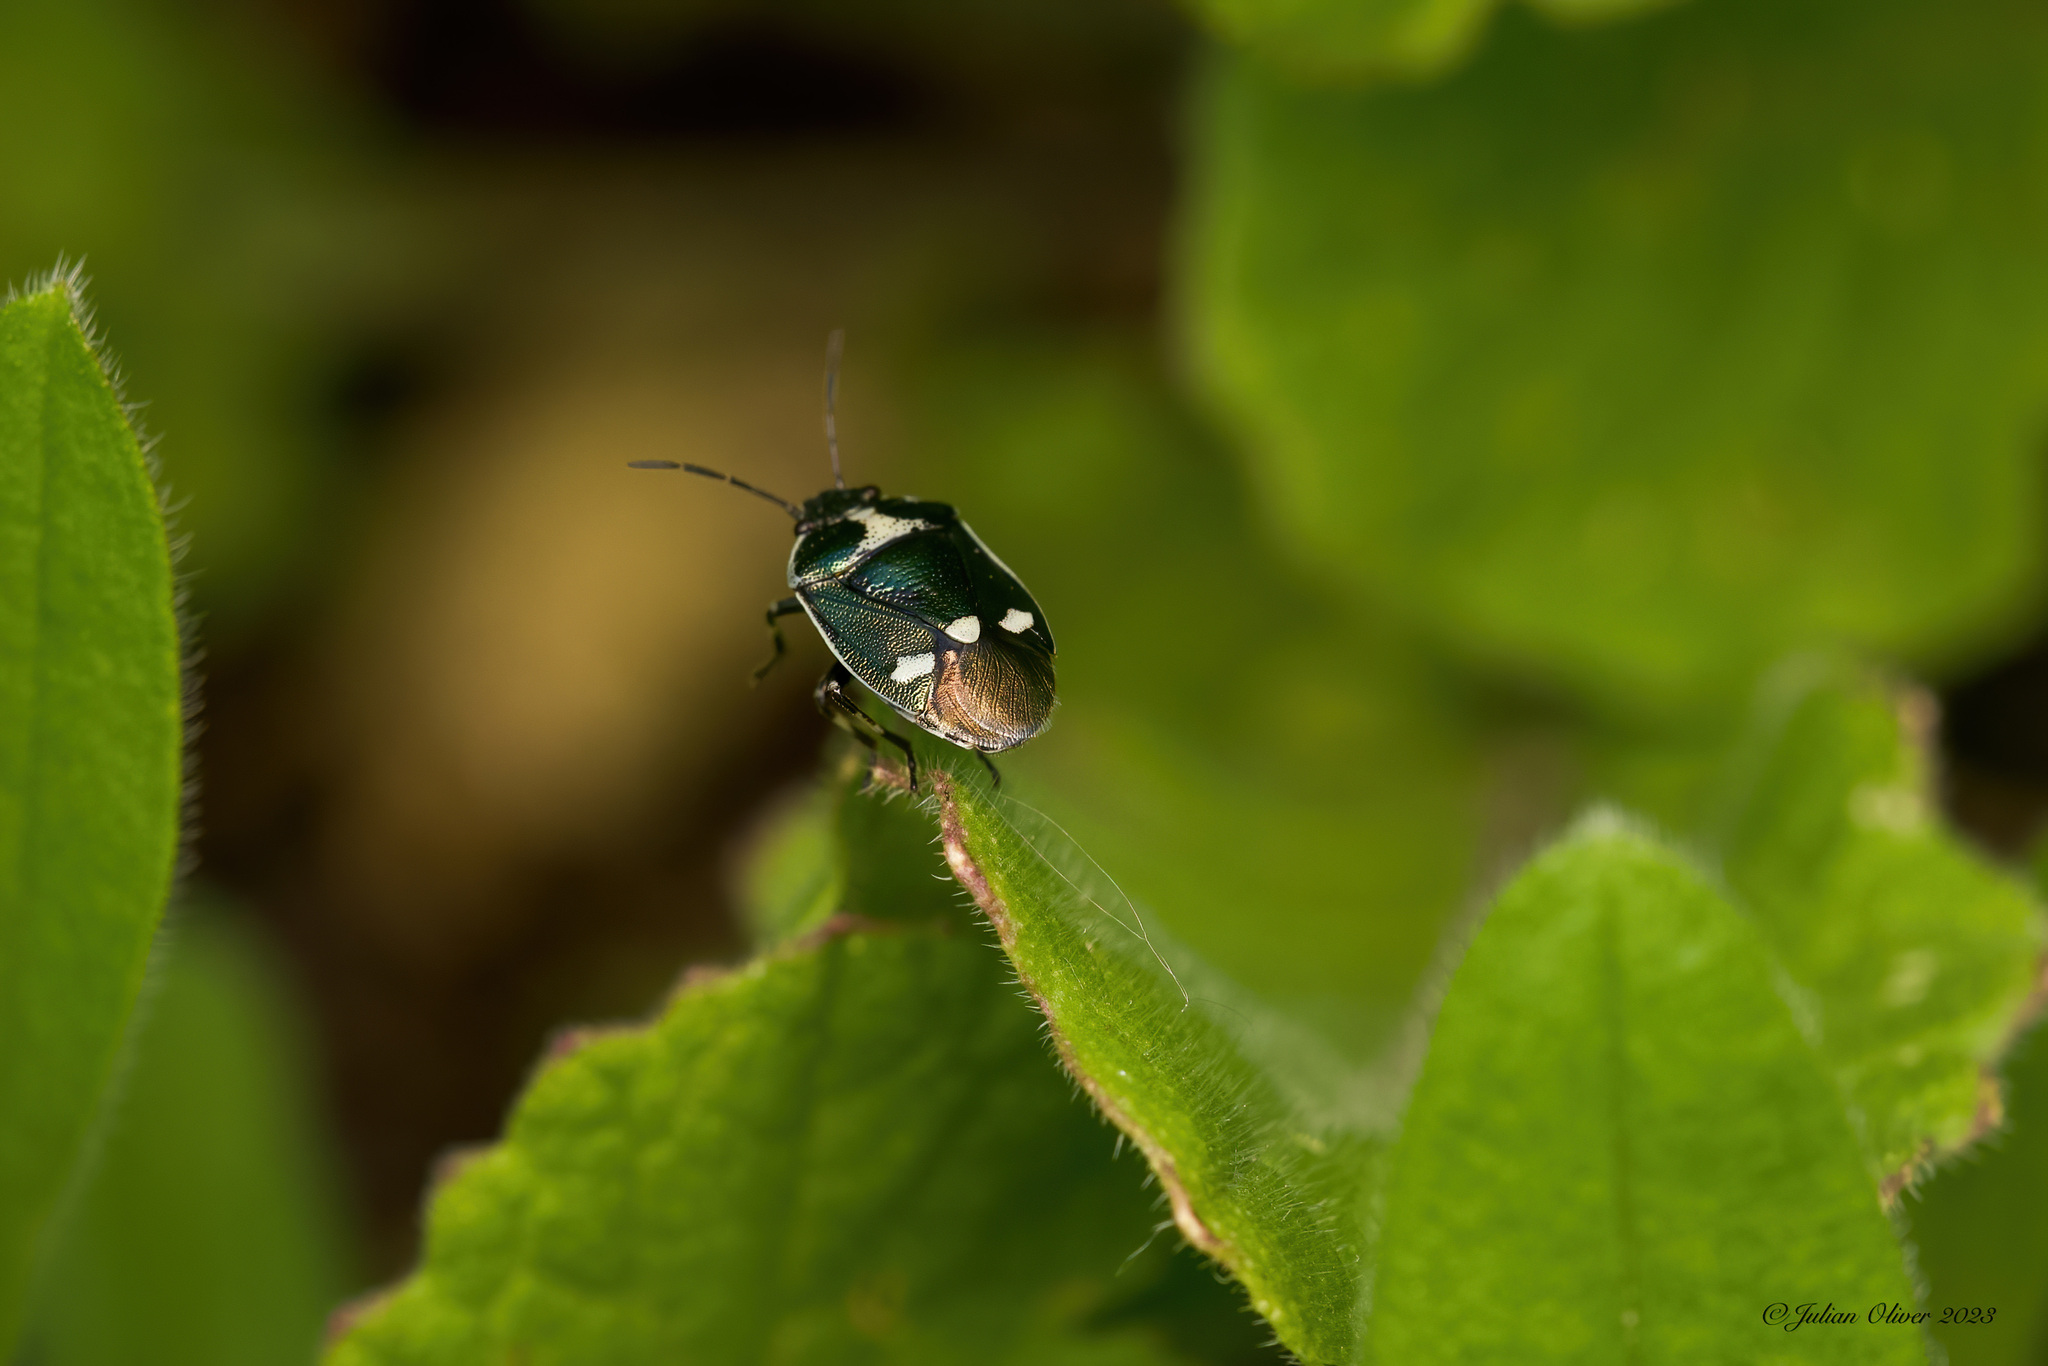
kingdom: Animalia
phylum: Arthropoda
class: Insecta
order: Hemiptera
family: Pentatomidae
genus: Eurydema
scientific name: Eurydema oleracea
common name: Cabbage bug
